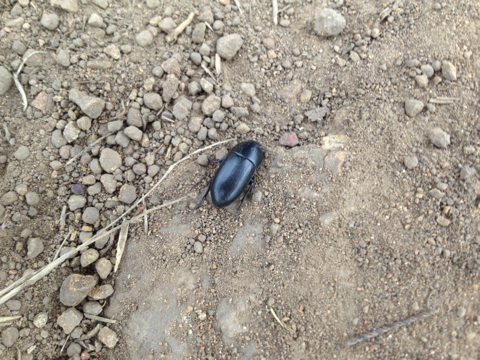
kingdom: Animalia
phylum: Arthropoda
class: Insecta
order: Coleoptera
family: Tenebrionidae
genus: Coniontis
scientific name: Coniontis
